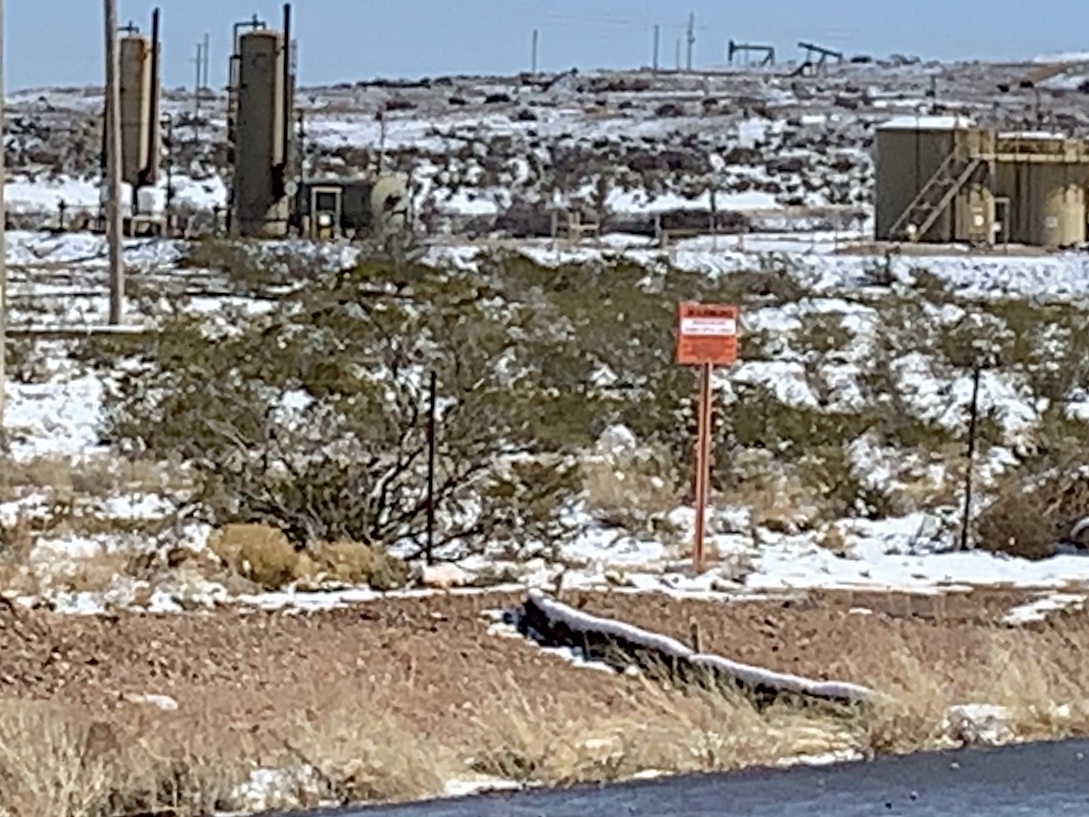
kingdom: Plantae
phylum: Tracheophyta
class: Magnoliopsida
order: Zygophyllales
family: Zygophyllaceae
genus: Larrea
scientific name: Larrea tridentata
